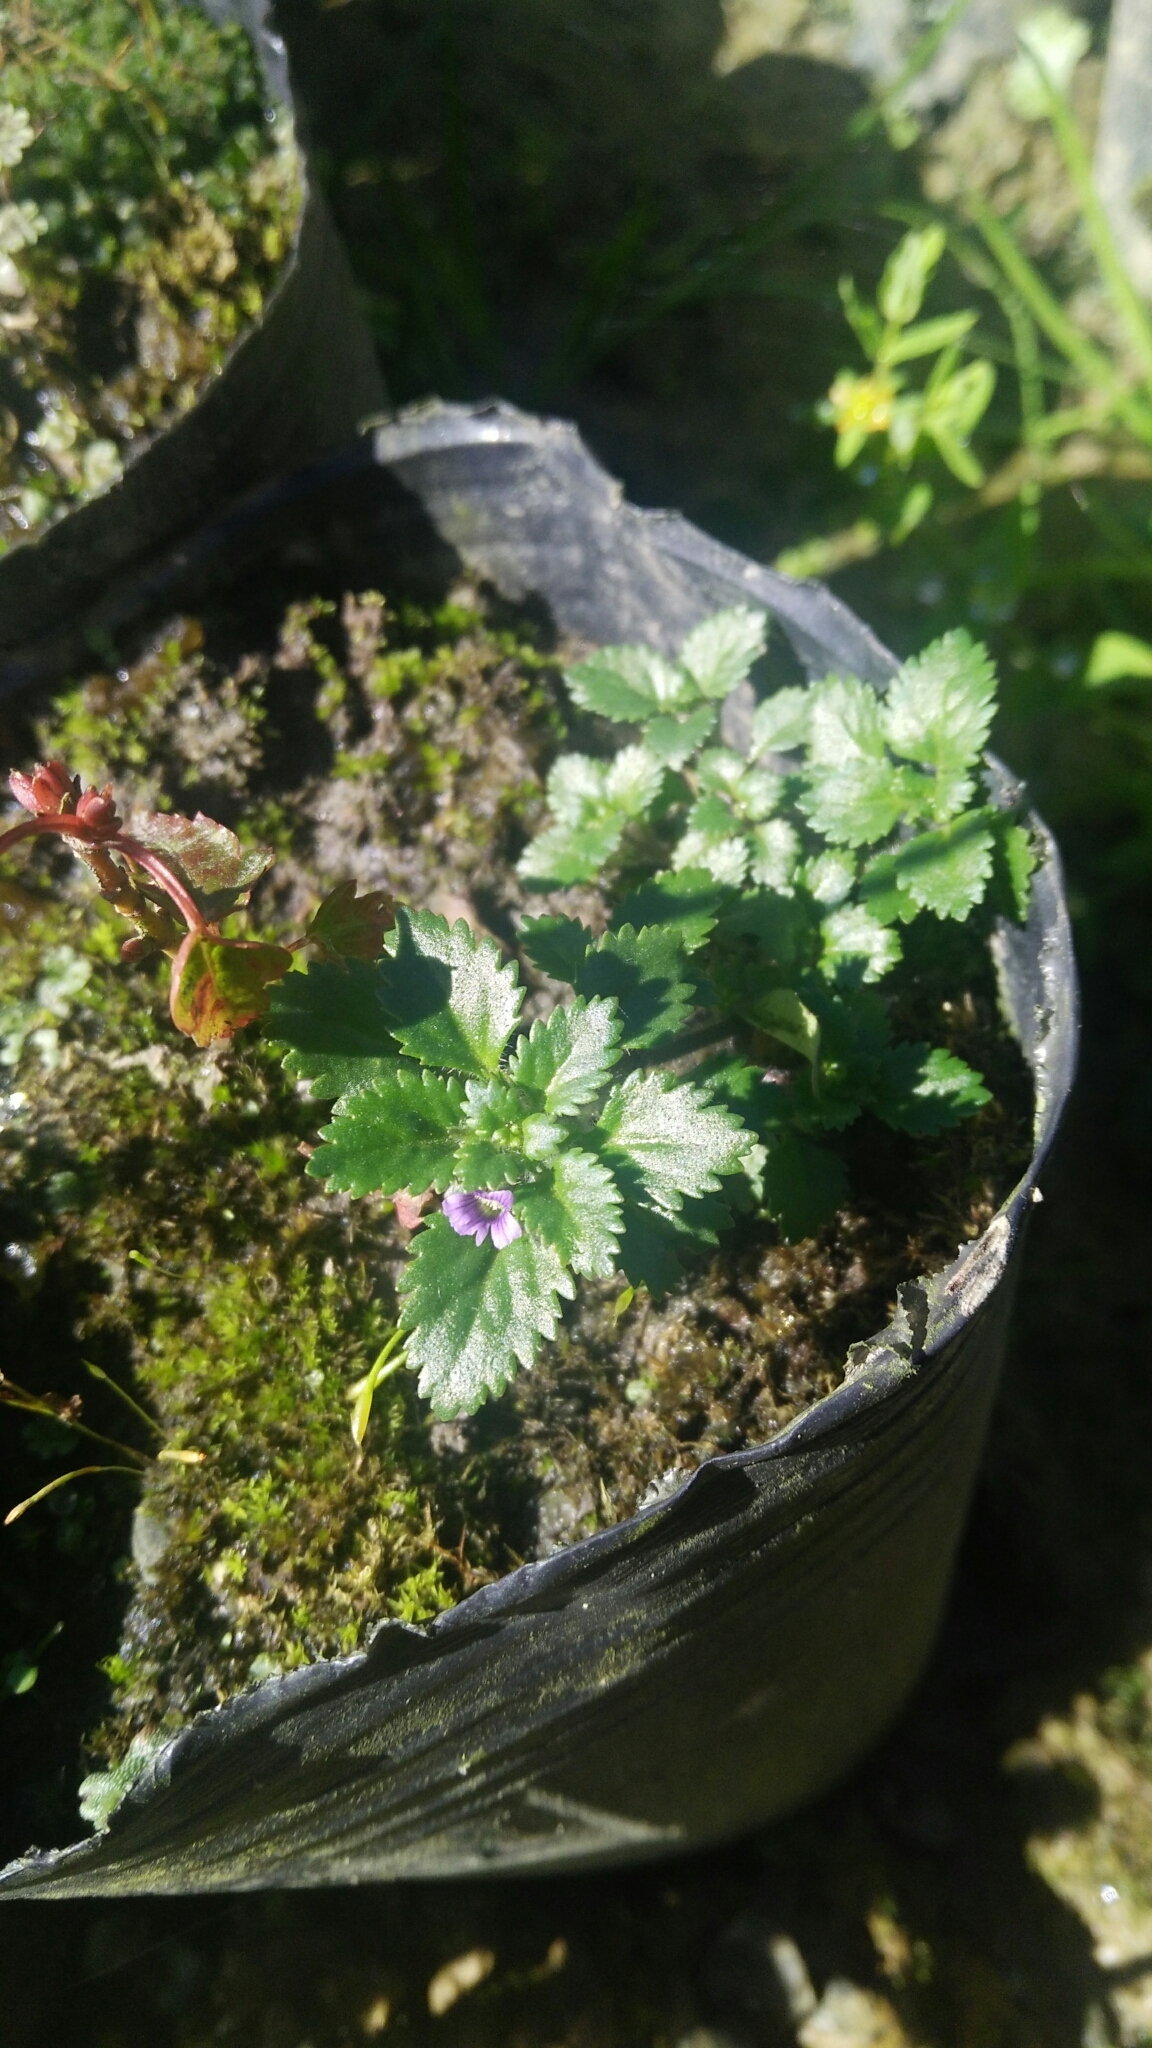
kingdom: Plantae
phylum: Tracheophyta
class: Magnoliopsida
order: Lamiales
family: Plantaginaceae
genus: Stemodia
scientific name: Stemodia verticillata
